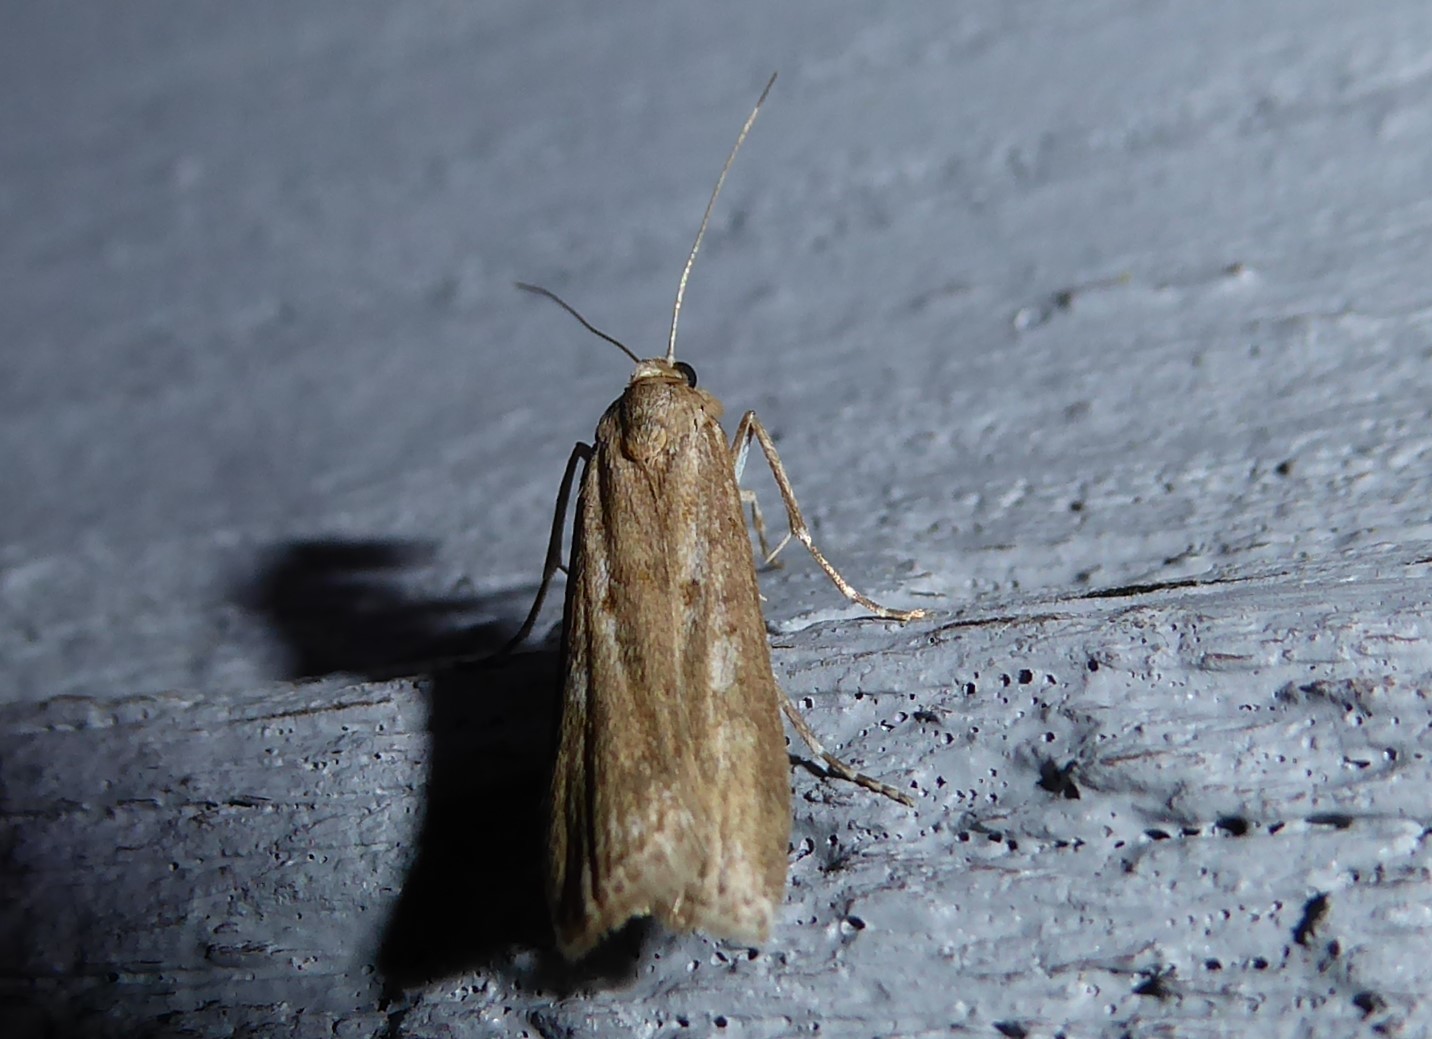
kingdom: Animalia
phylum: Arthropoda
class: Insecta
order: Lepidoptera
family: Crambidae
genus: Eudonia
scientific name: Eudonia leptalea
